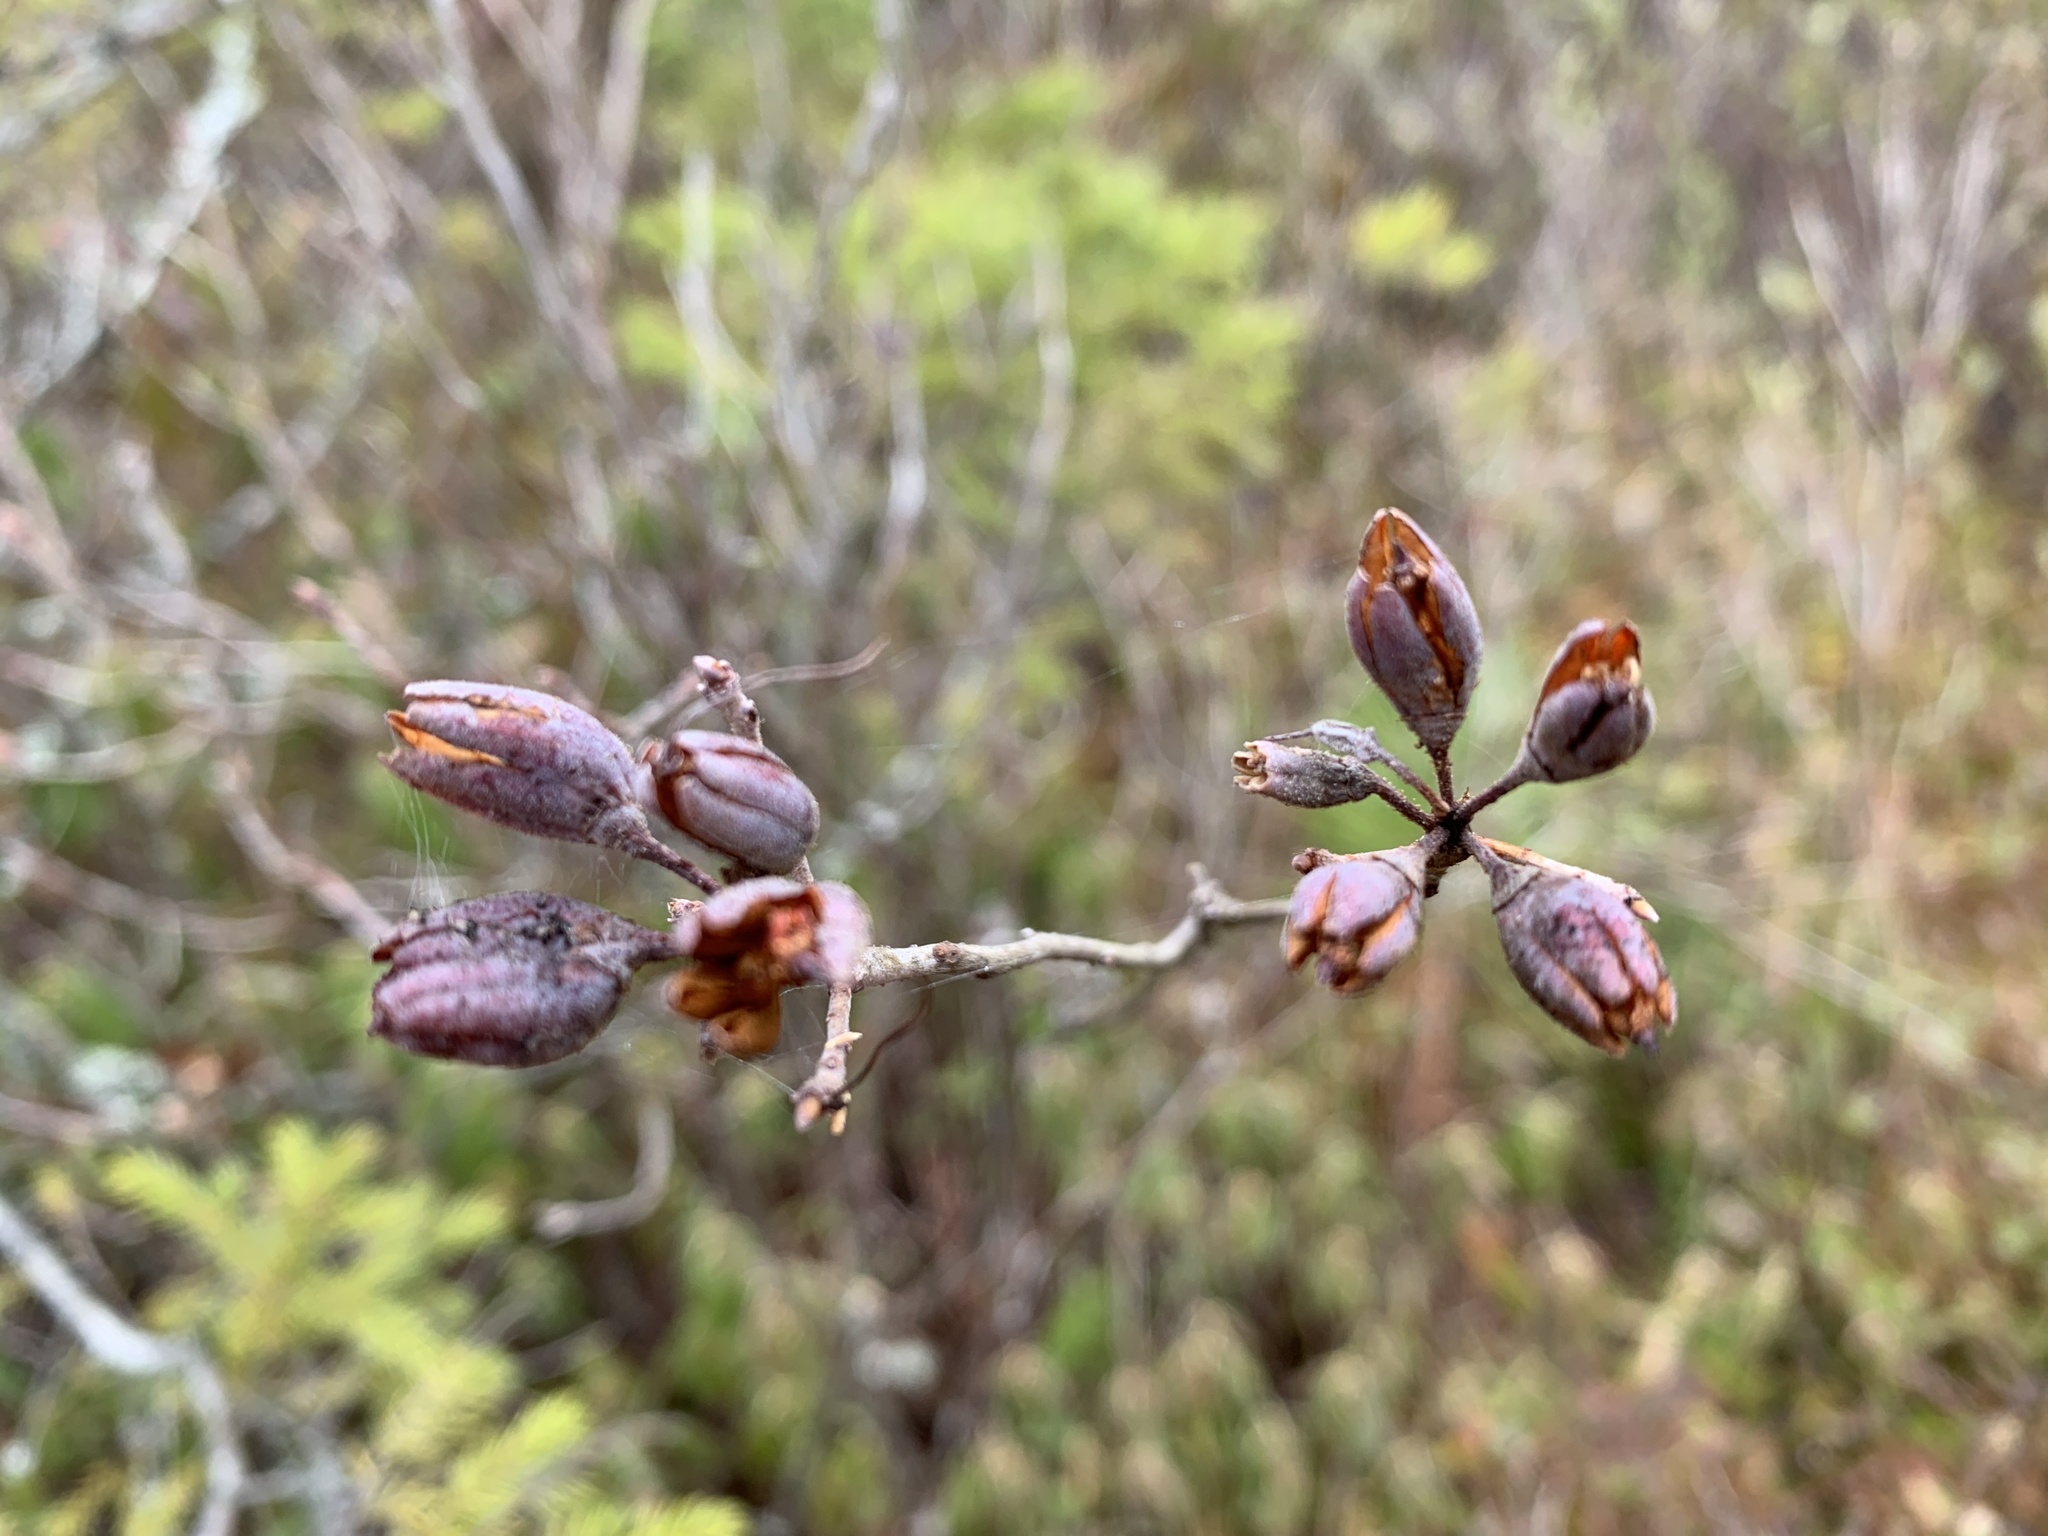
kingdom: Plantae
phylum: Tracheophyta
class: Magnoliopsida
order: Ericales
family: Ericaceae
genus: Rhododendron
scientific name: Rhododendron canadense
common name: Rhodora
